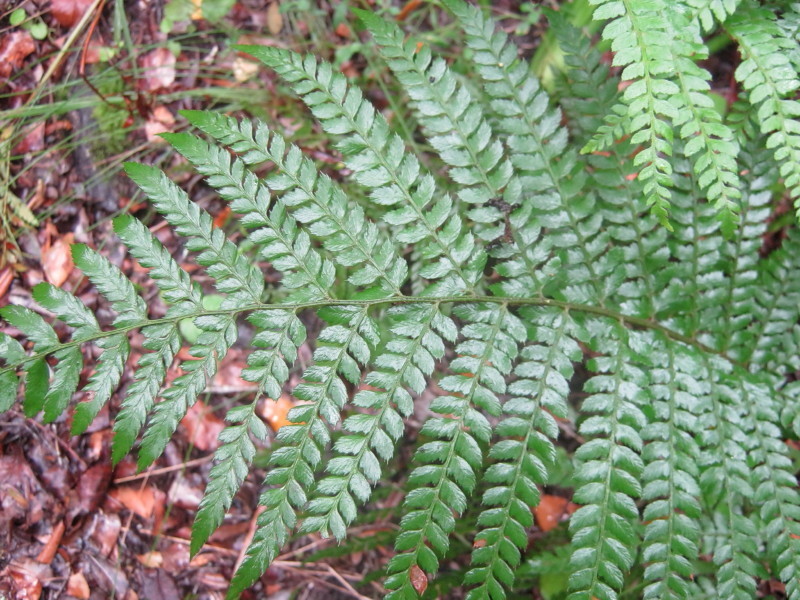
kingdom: Plantae
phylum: Tracheophyta
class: Polypodiopsida
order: Polypodiales
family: Dryopteridaceae
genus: Polystichum
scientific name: Polystichum pungens
